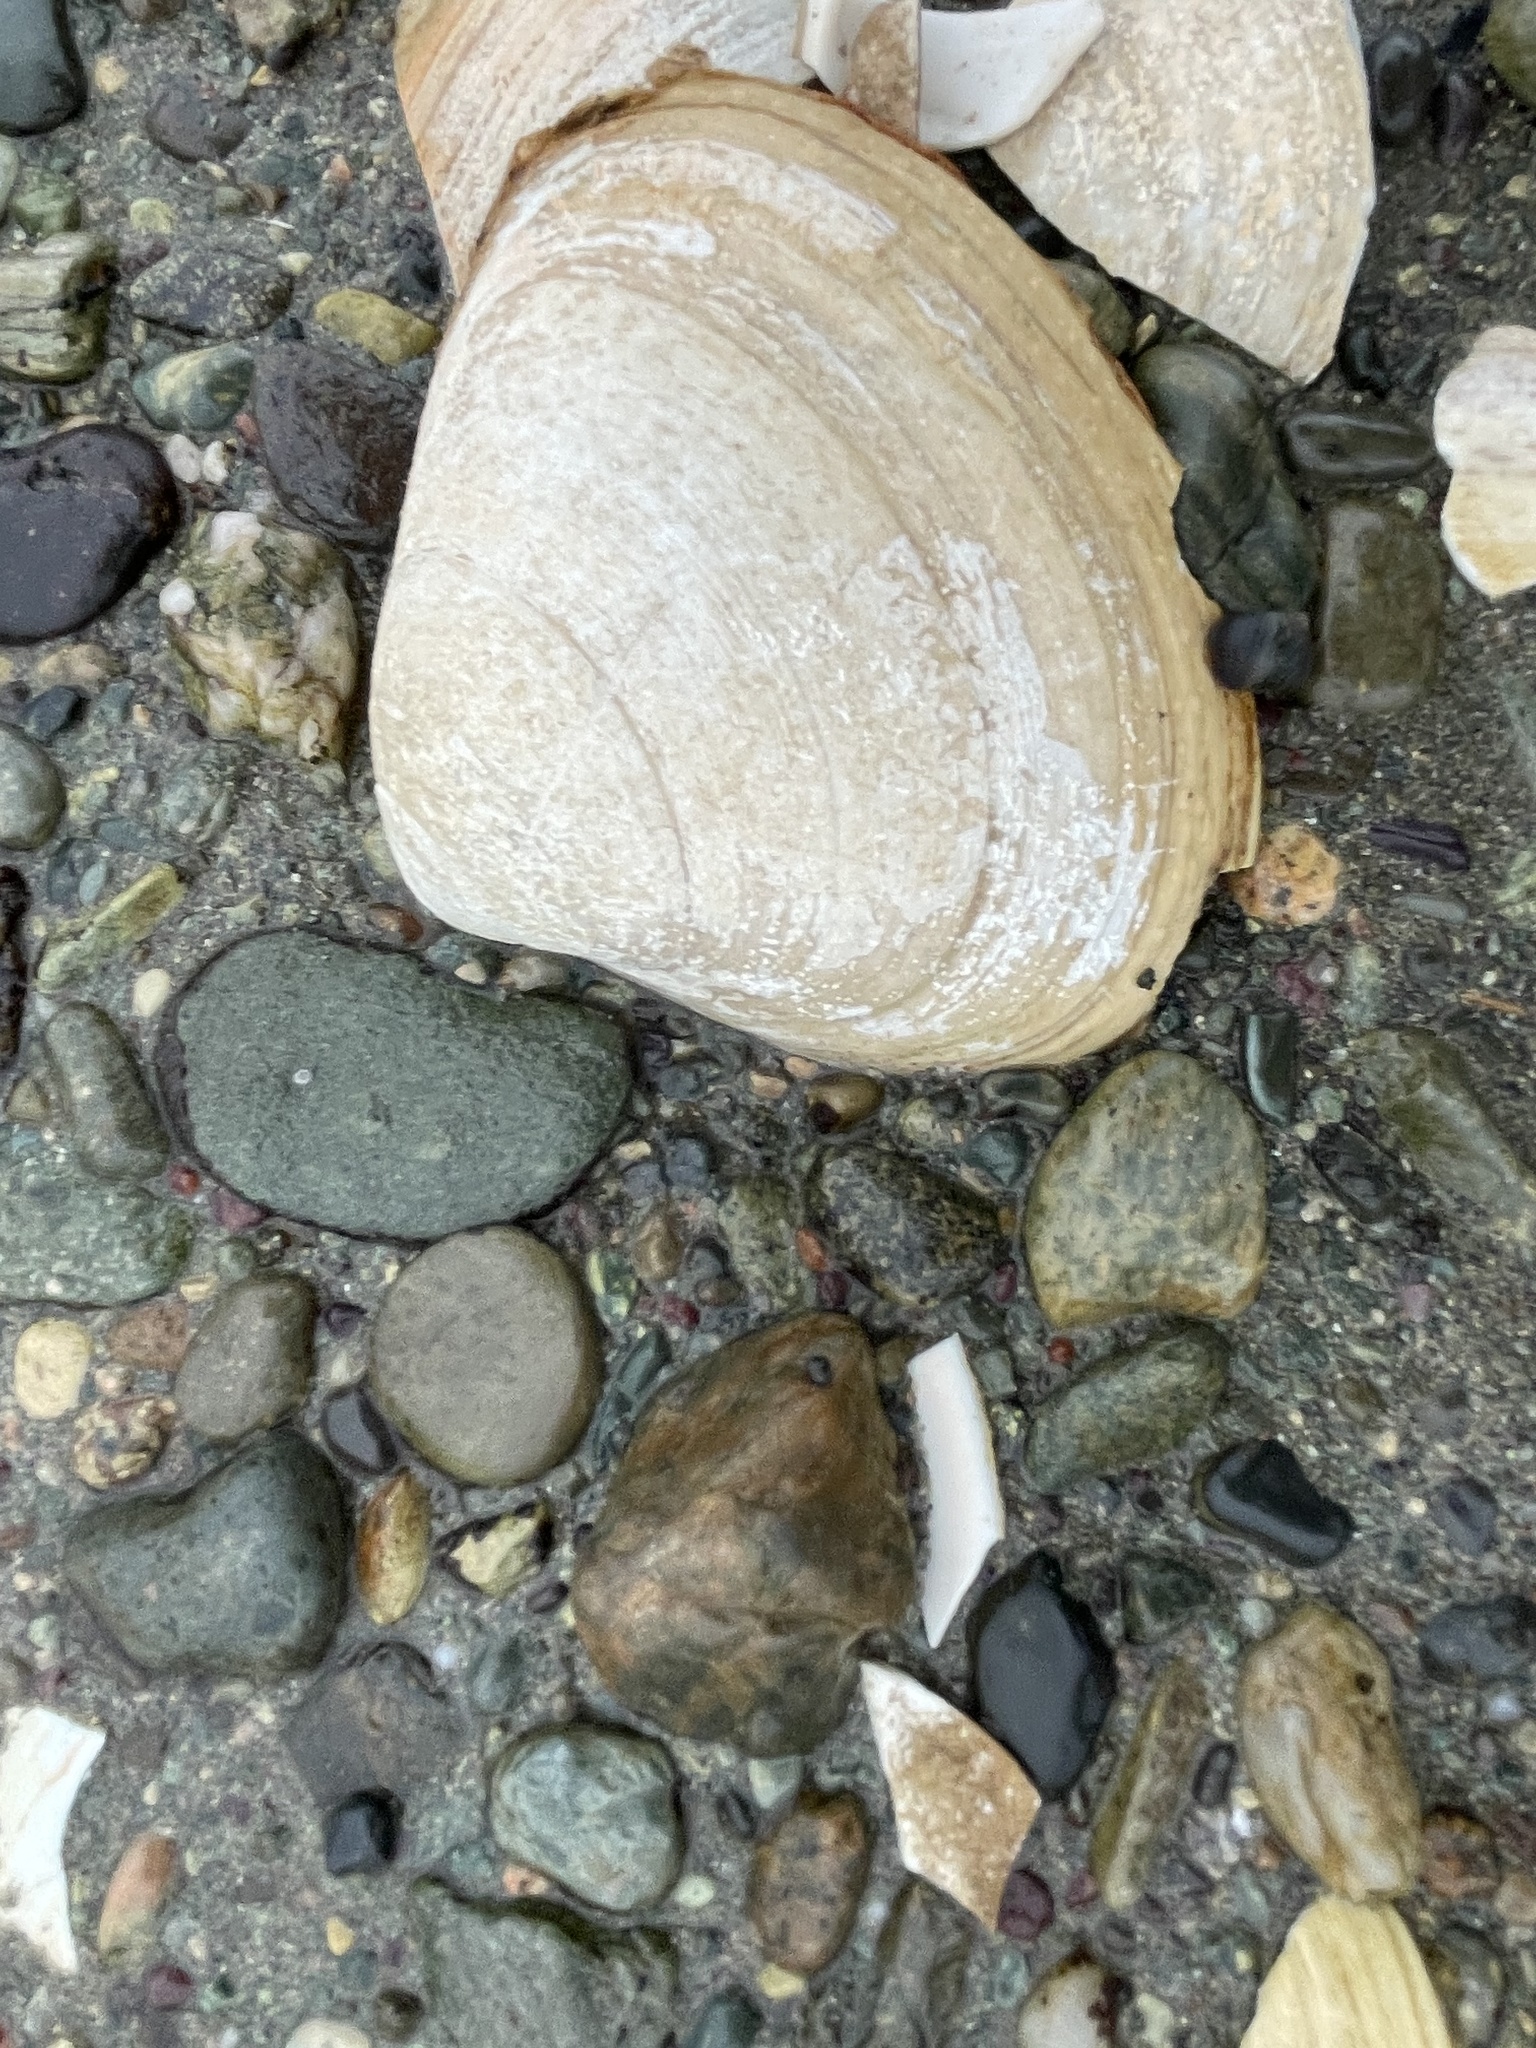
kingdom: Animalia
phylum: Mollusca
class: Bivalvia
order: Venerida
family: Mactridae
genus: Spisula
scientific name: Spisula solidissima
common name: Atlantic surf clam
